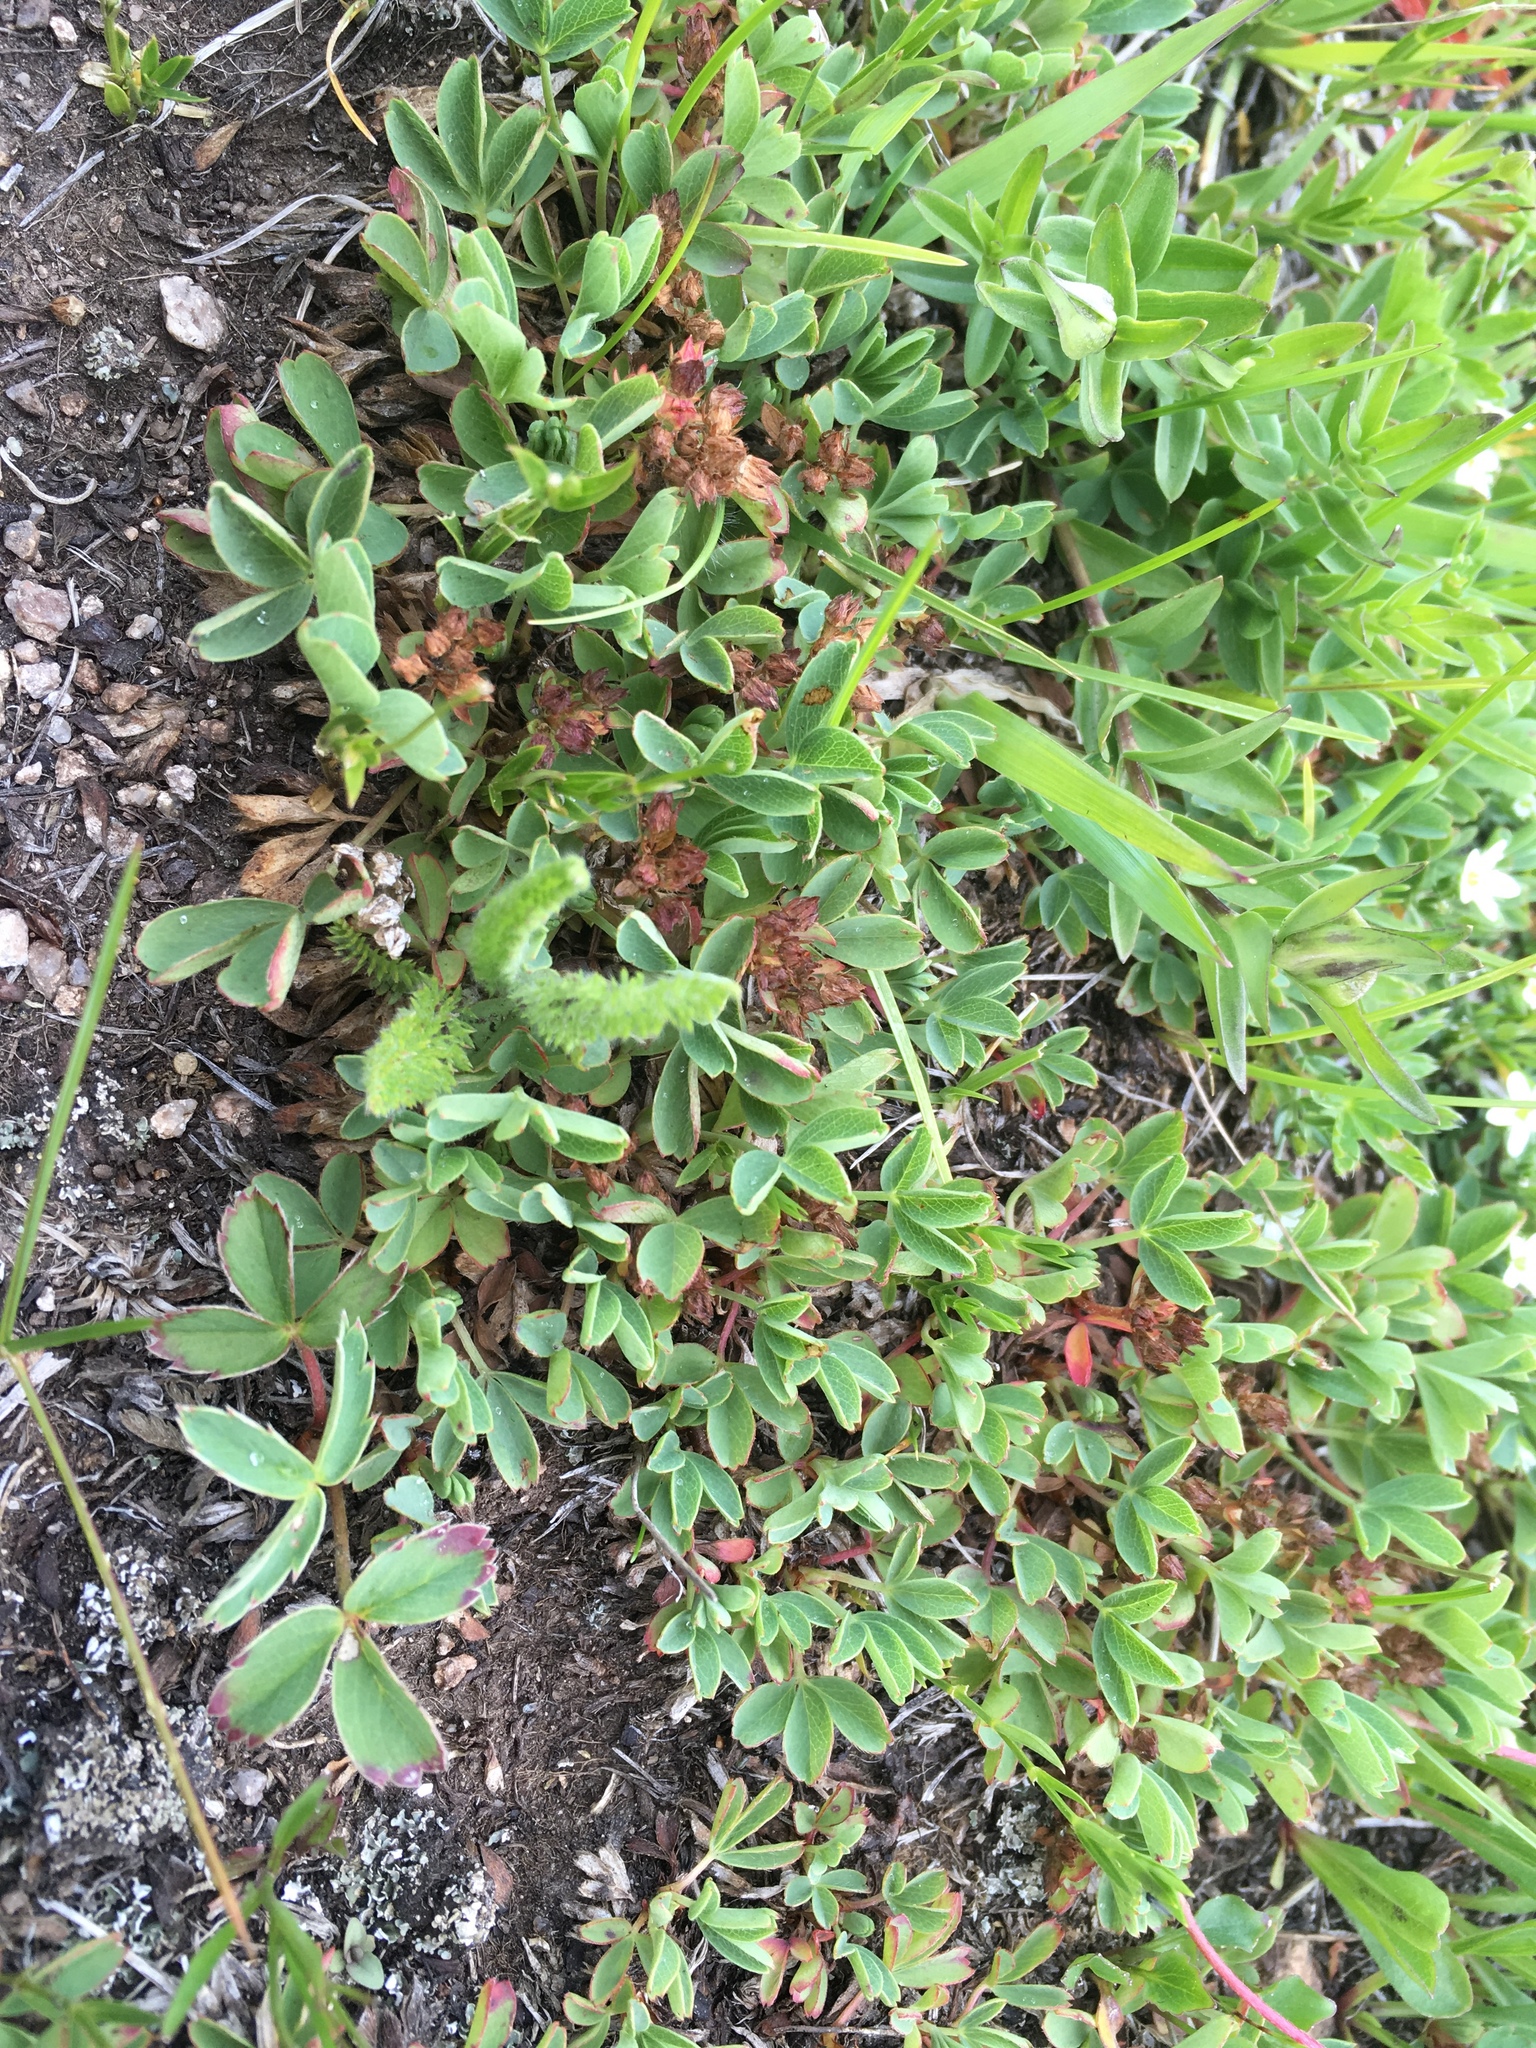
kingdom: Plantae
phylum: Tracheophyta
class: Magnoliopsida
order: Rosales
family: Rosaceae
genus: Sibbaldia
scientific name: Sibbaldia procumbens
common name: Creeping sibbaldia
